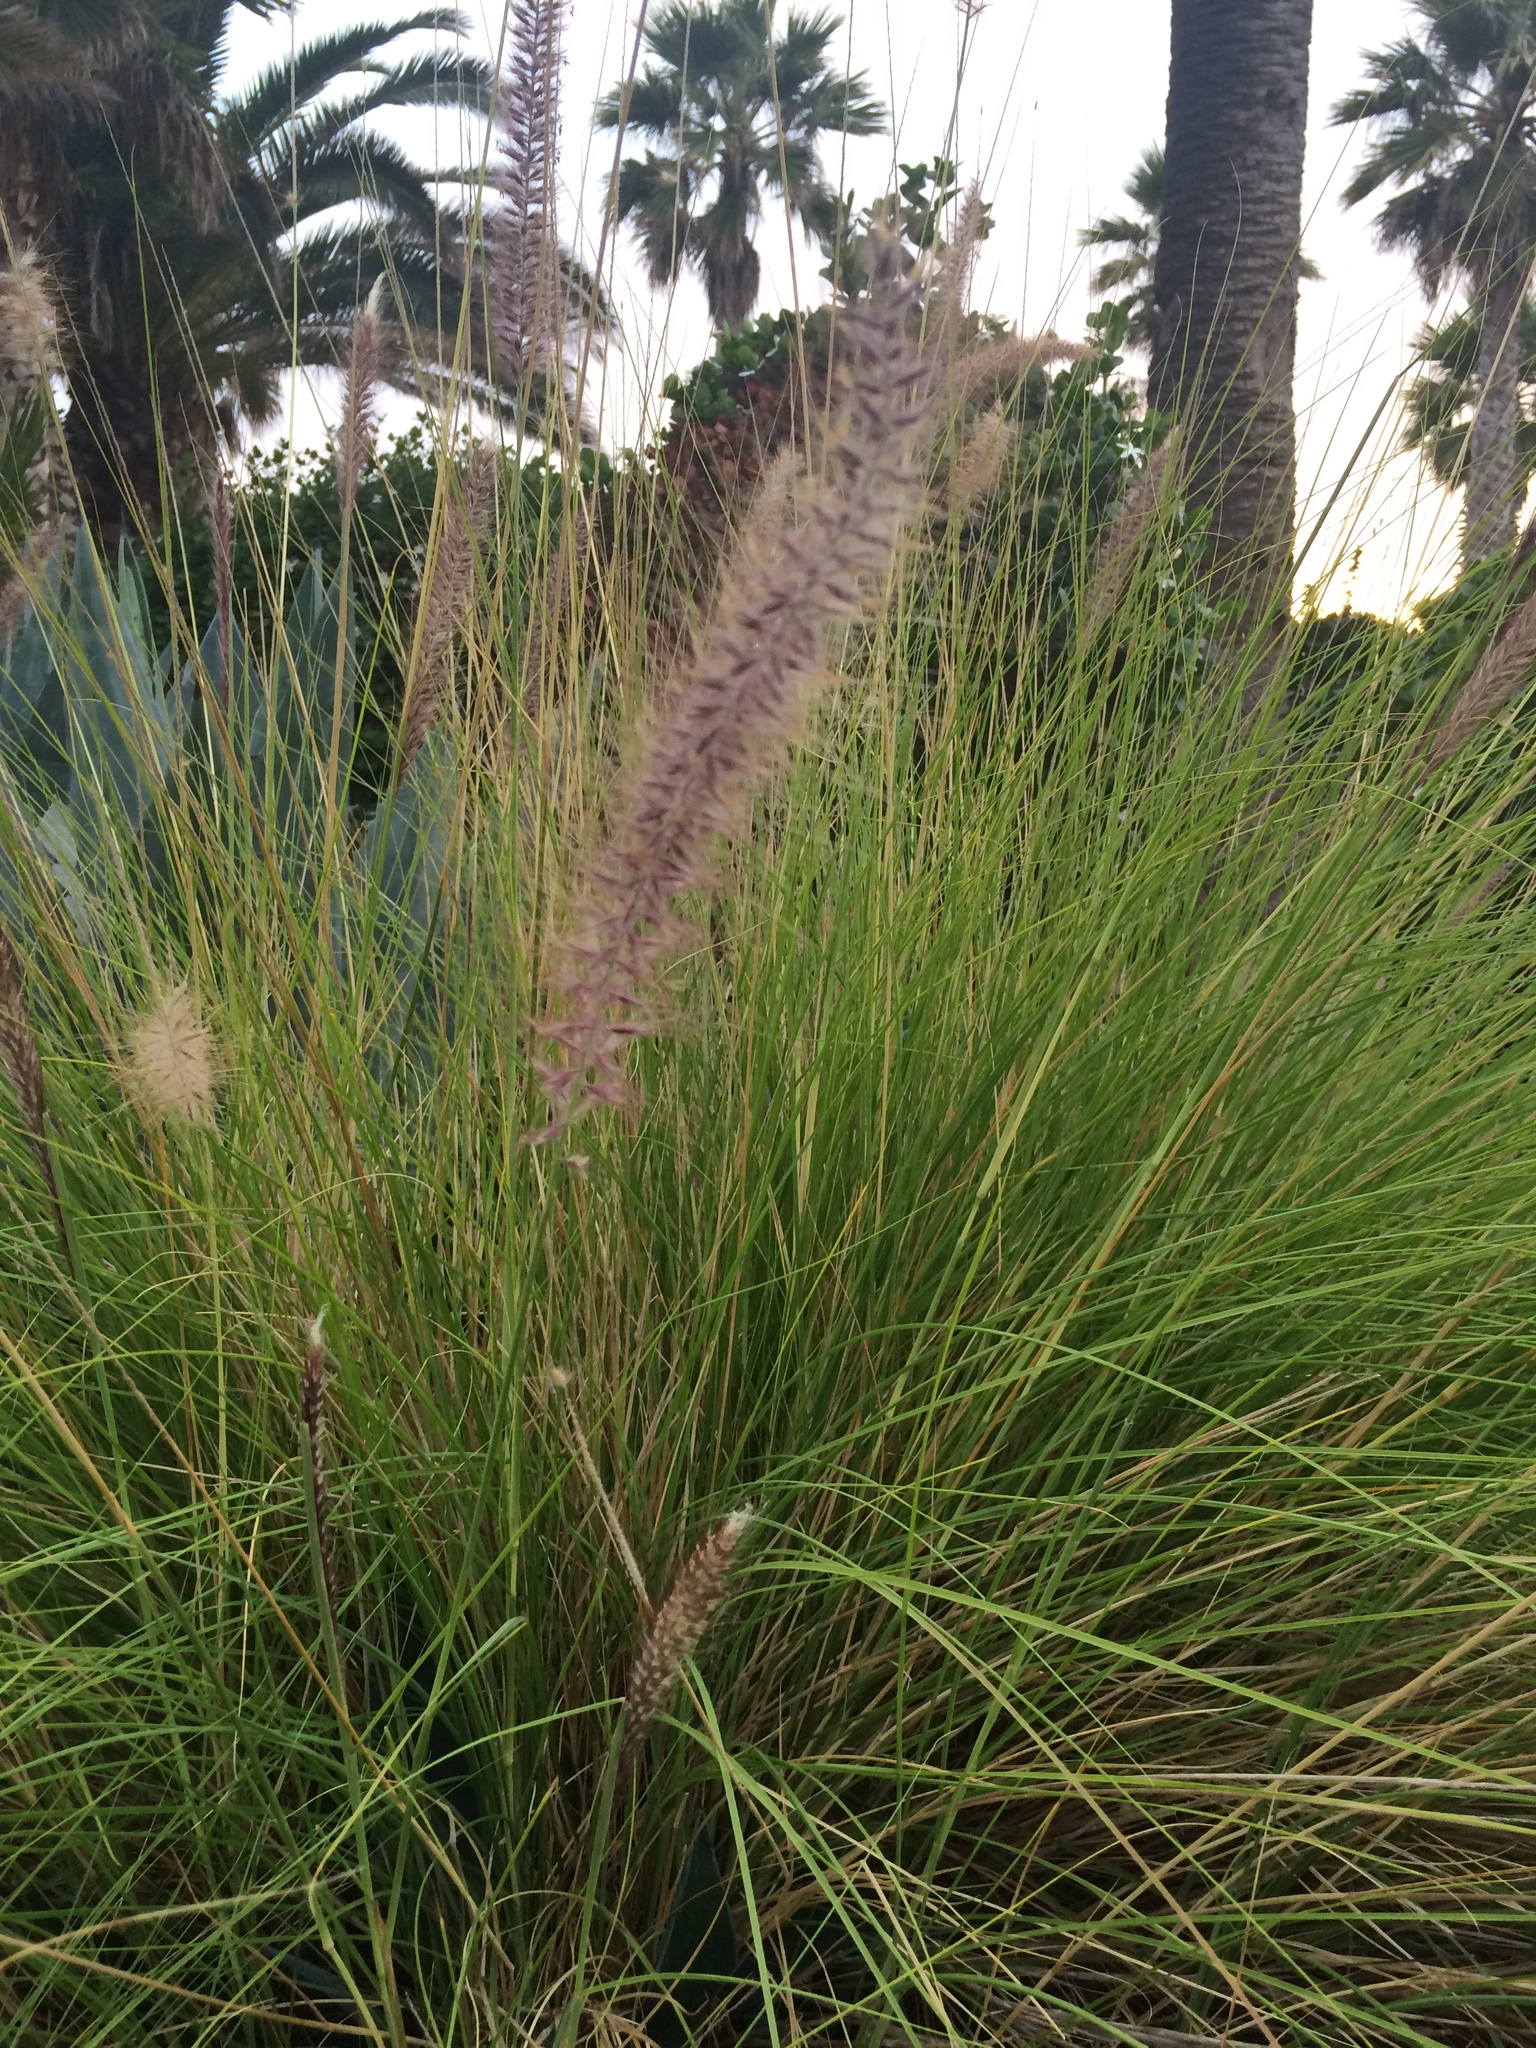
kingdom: Plantae
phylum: Tracheophyta
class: Liliopsida
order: Poales
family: Poaceae
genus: Cenchrus
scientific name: Cenchrus setaceus
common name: Crimson fountaingrass
